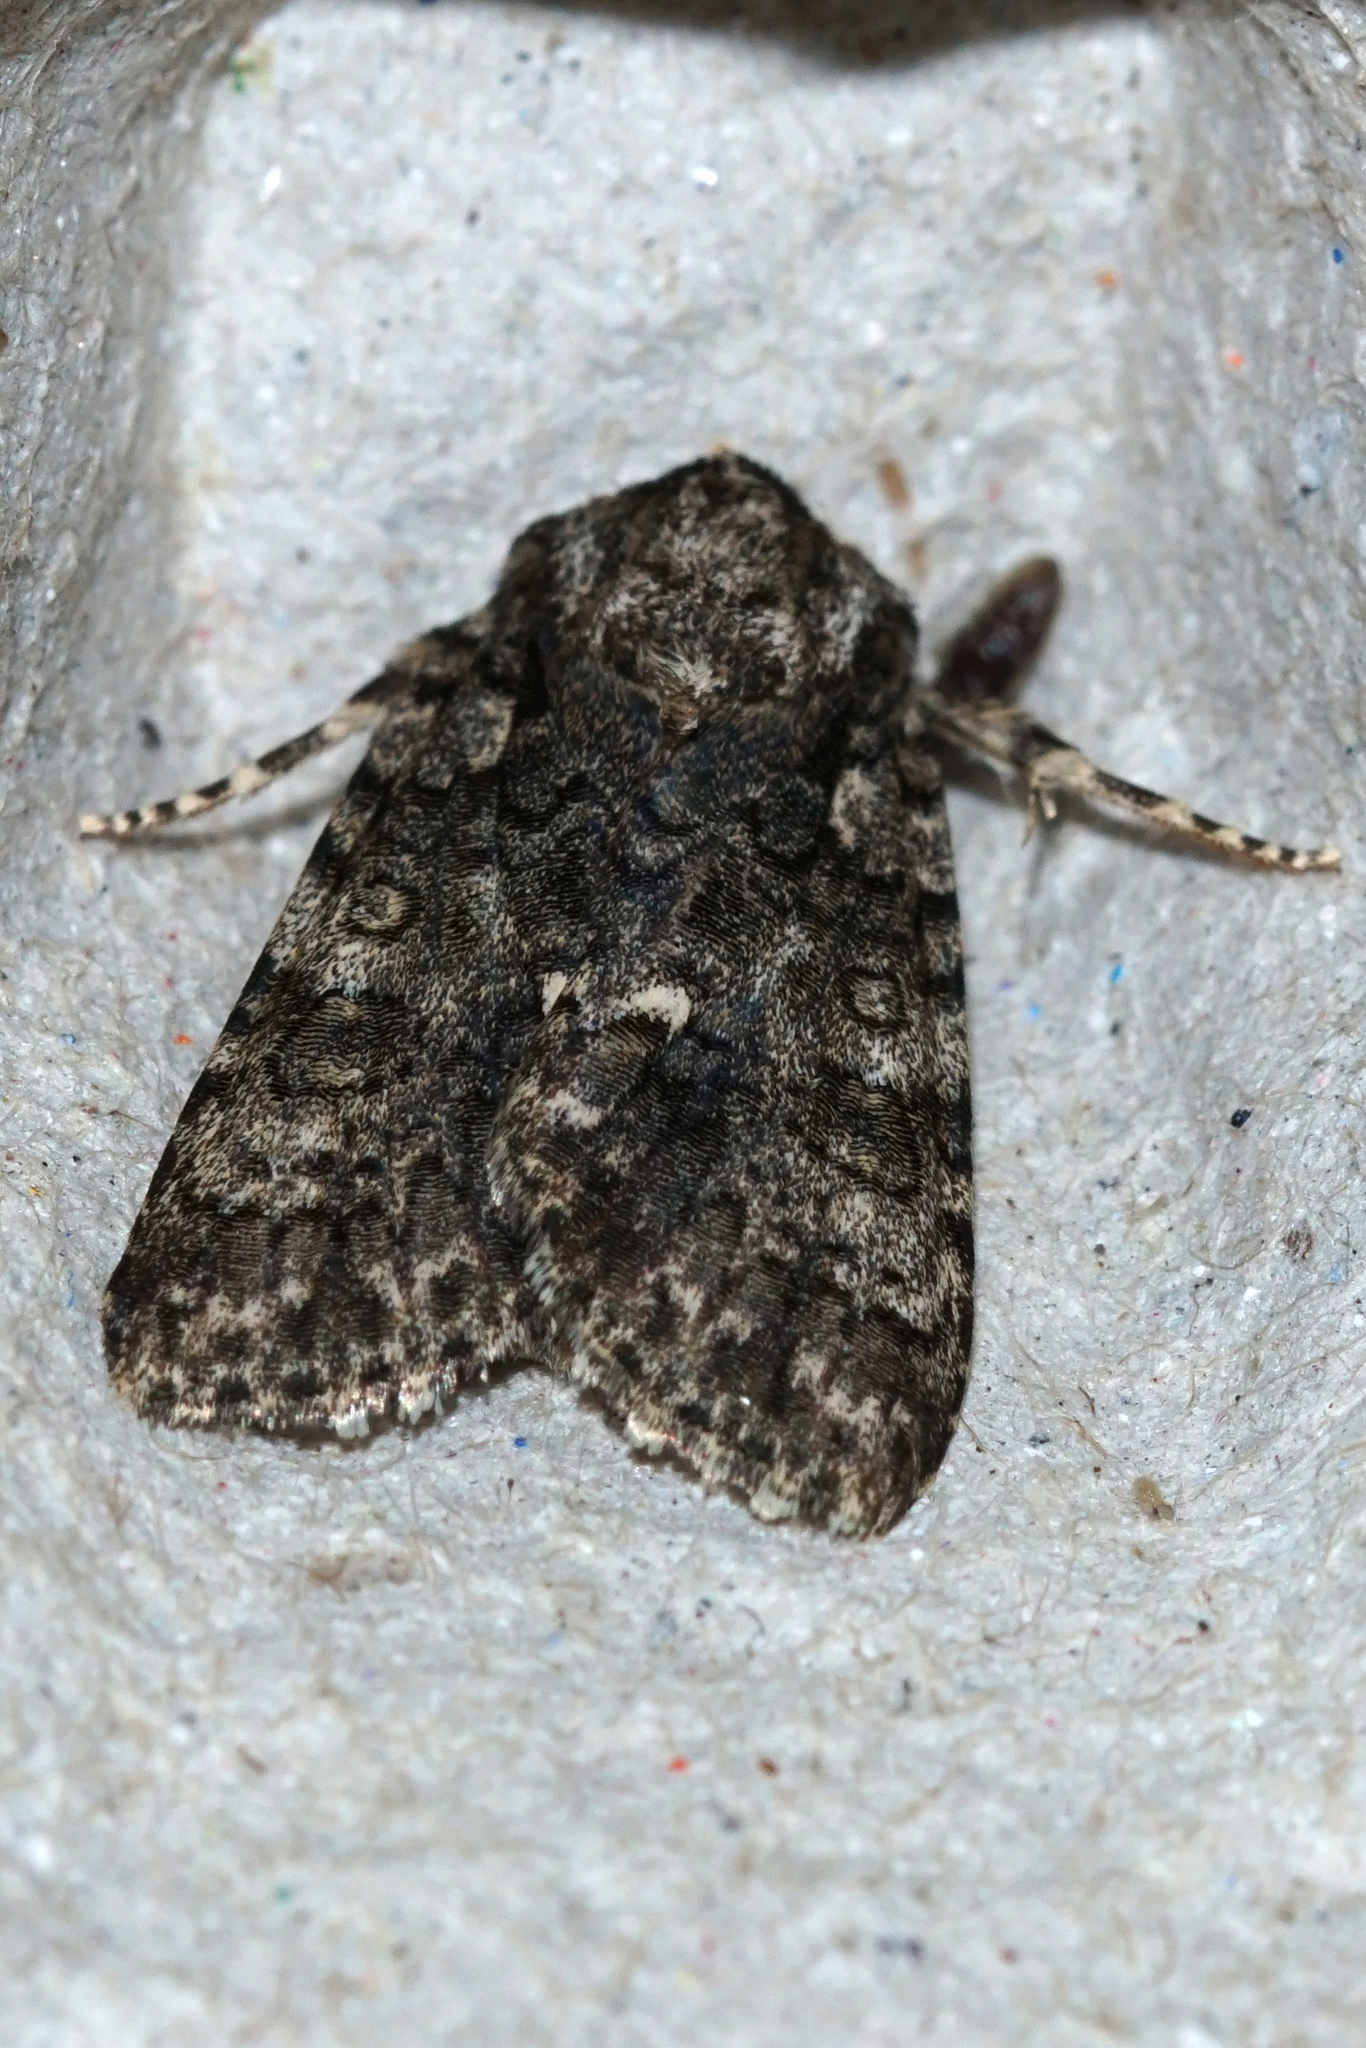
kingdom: Animalia
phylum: Arthropoda
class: Insecta
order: Lepidoptera
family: Noctuidae
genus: Acronicta
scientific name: Acronicta rumicis
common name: Knot grass
